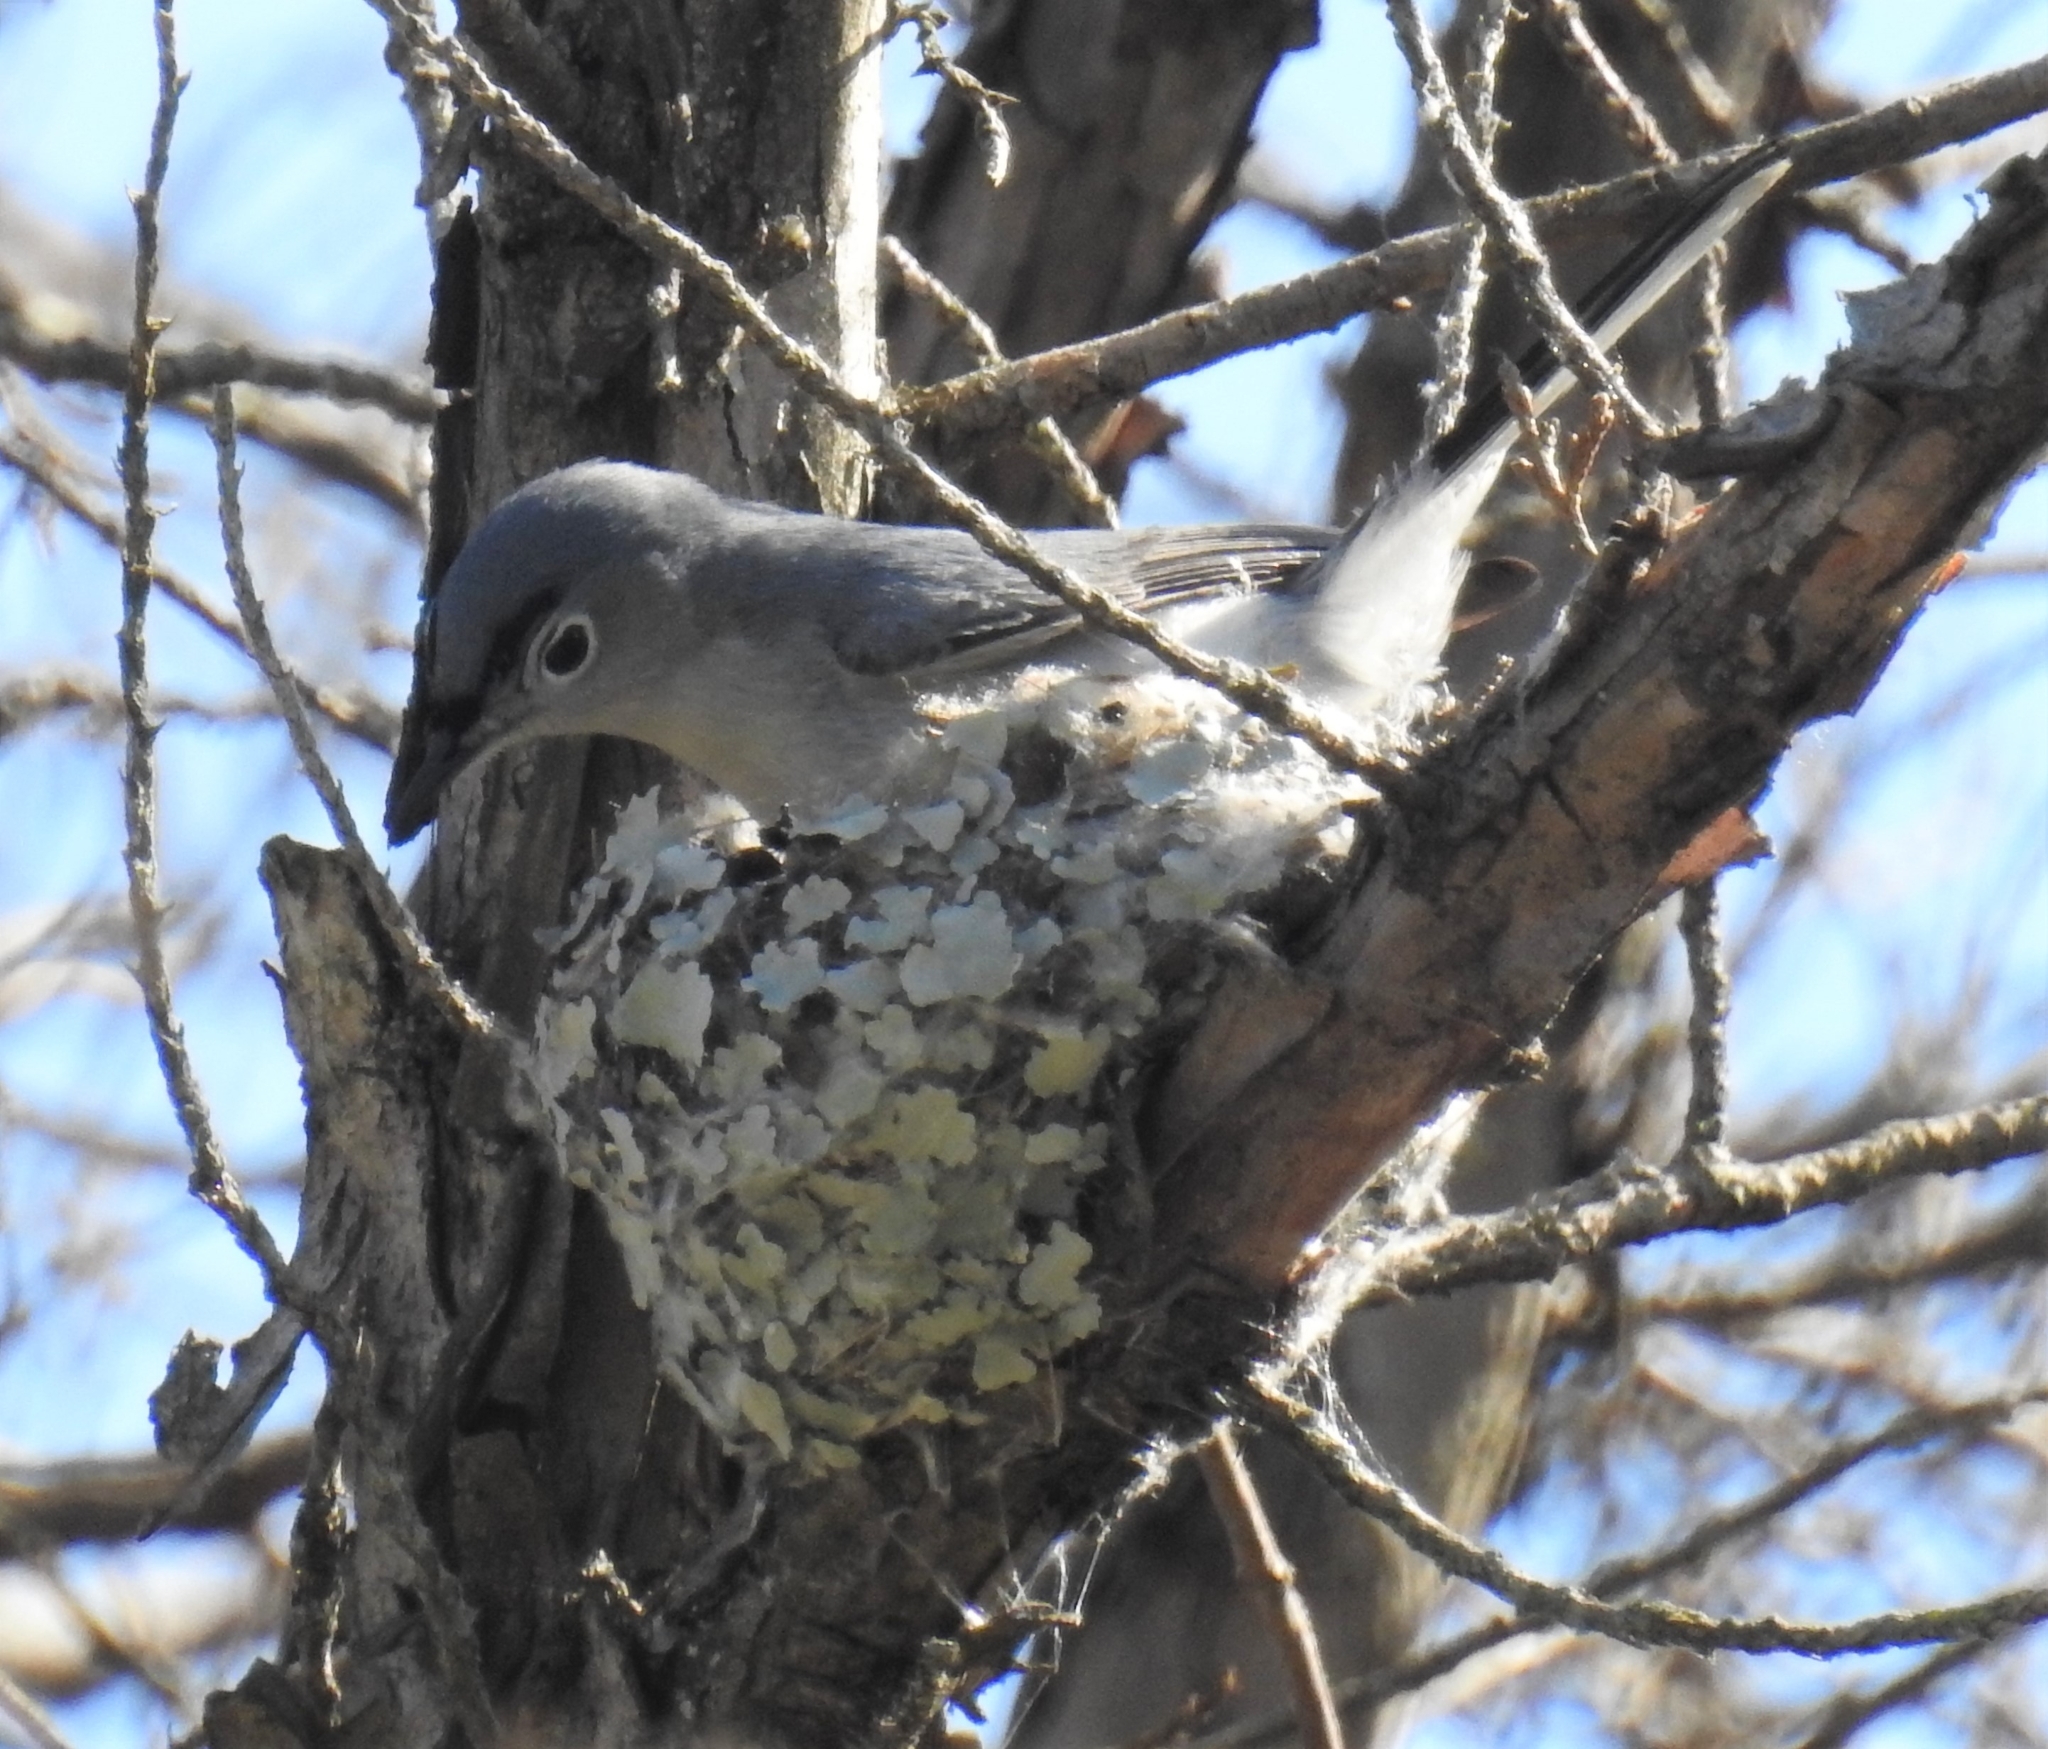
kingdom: Animalia
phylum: Chordata
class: Aves
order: Passeriformes
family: Polioptilidae
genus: Polioptila
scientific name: Polioptila caerulea
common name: Blue-gray gnatcatcher
